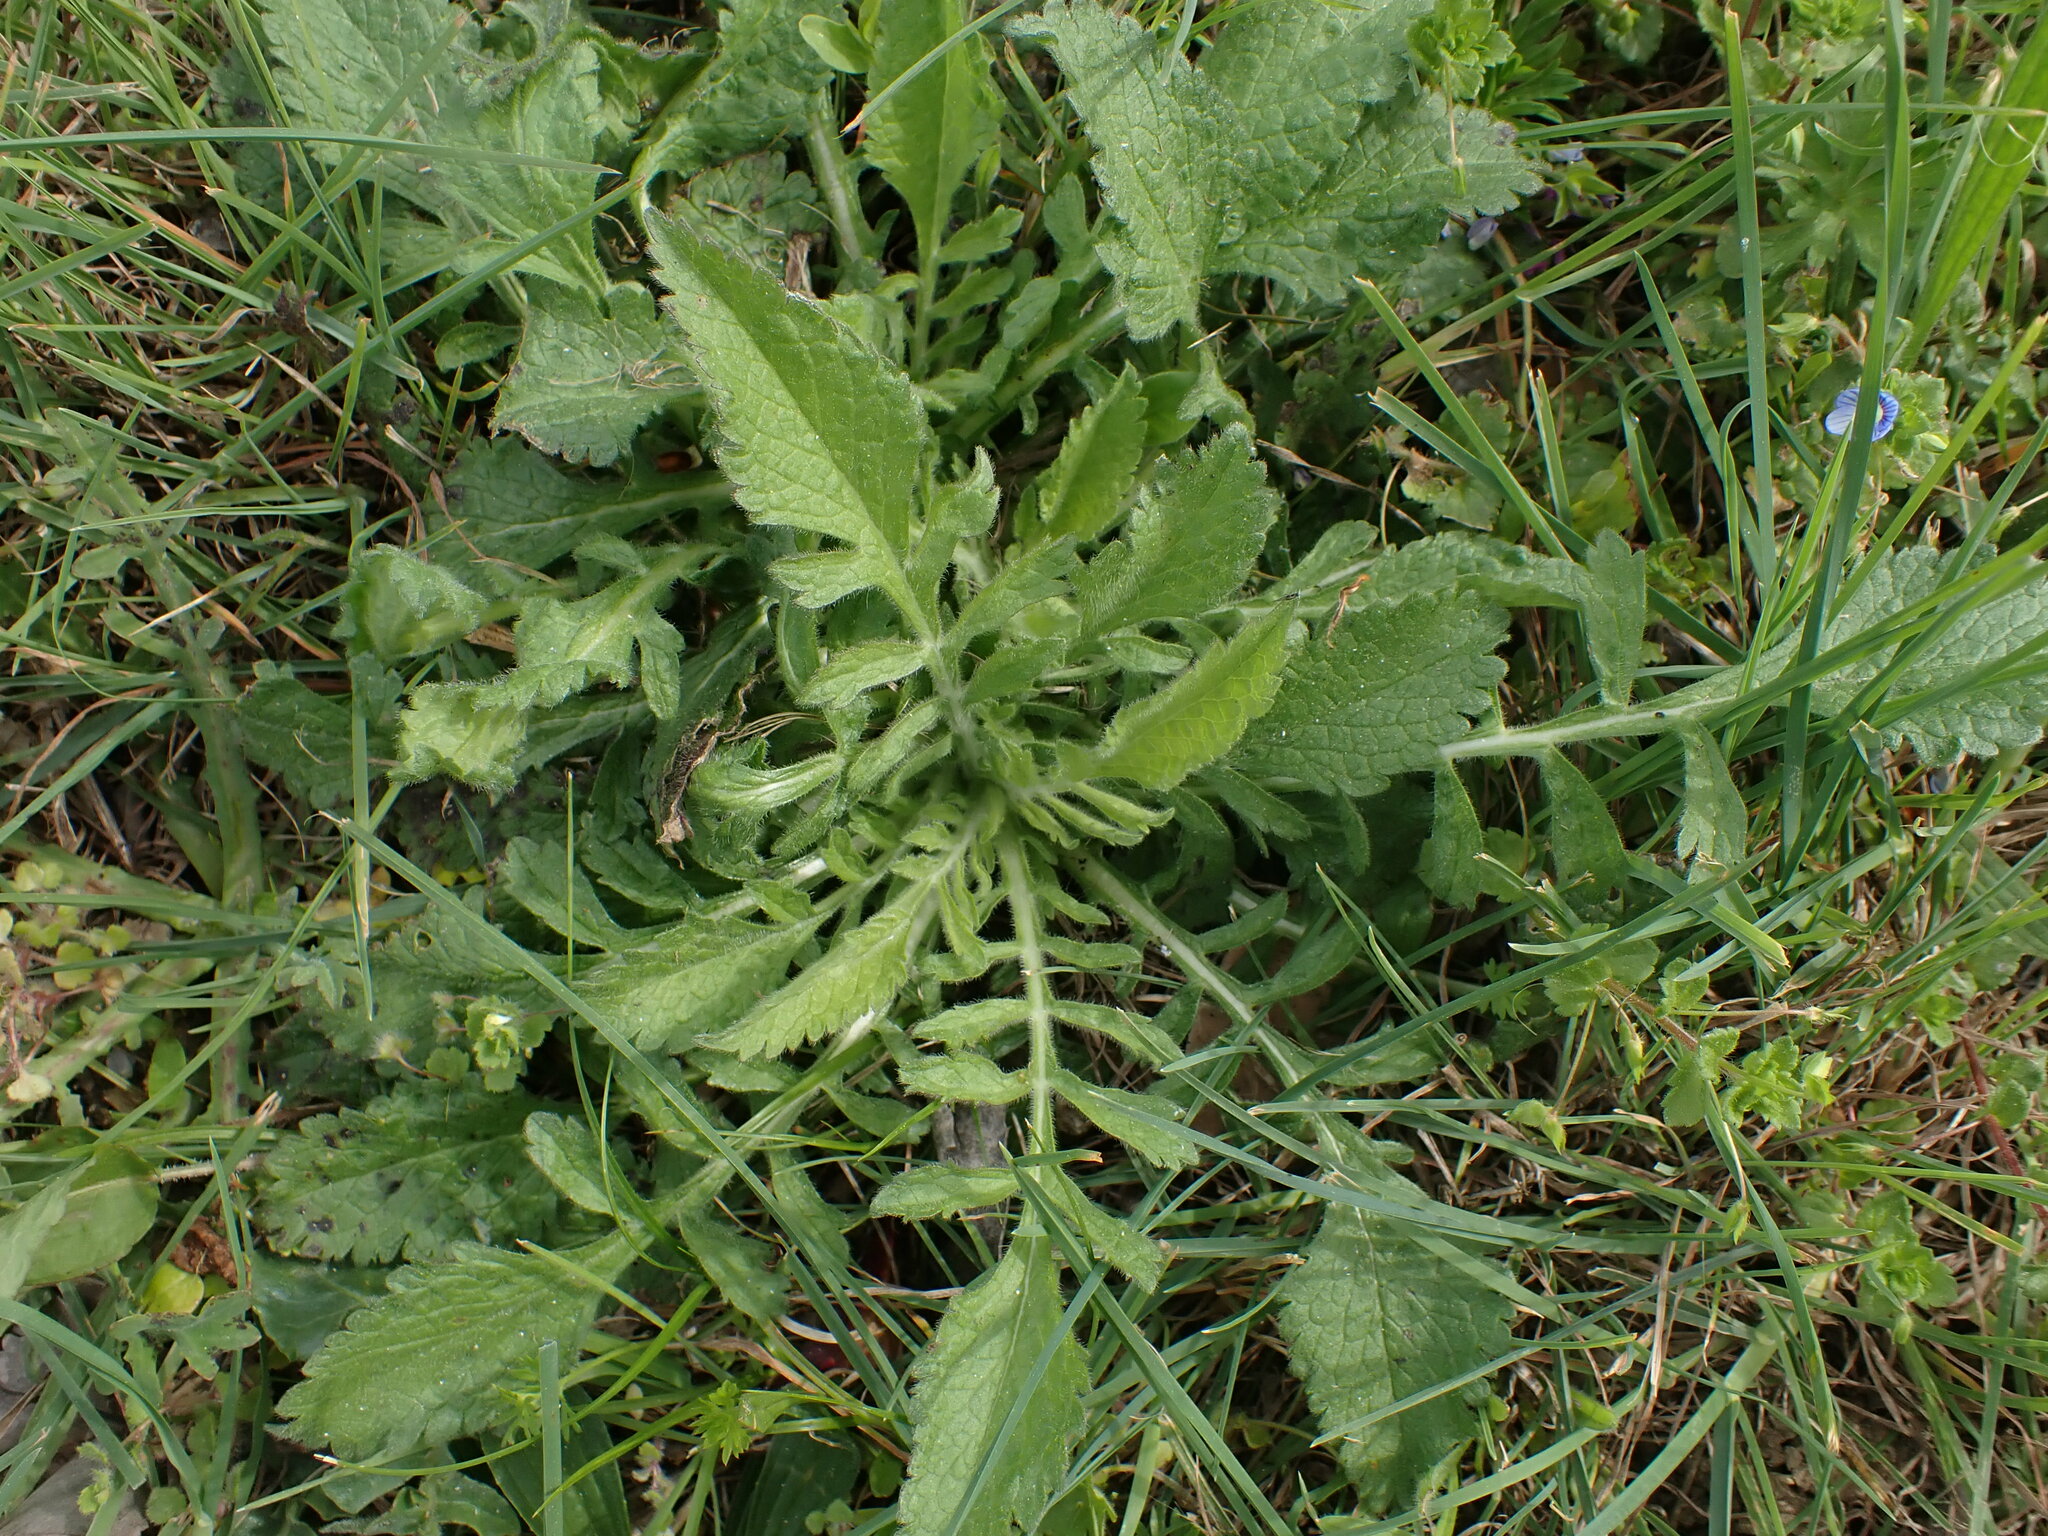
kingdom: Plantae
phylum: Tracheophyta
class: Magnoliopsida
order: Dipsacales
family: Caprifoliaceae
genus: Sixalix
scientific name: Sixalix atropurpurea
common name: Sweet scabious
